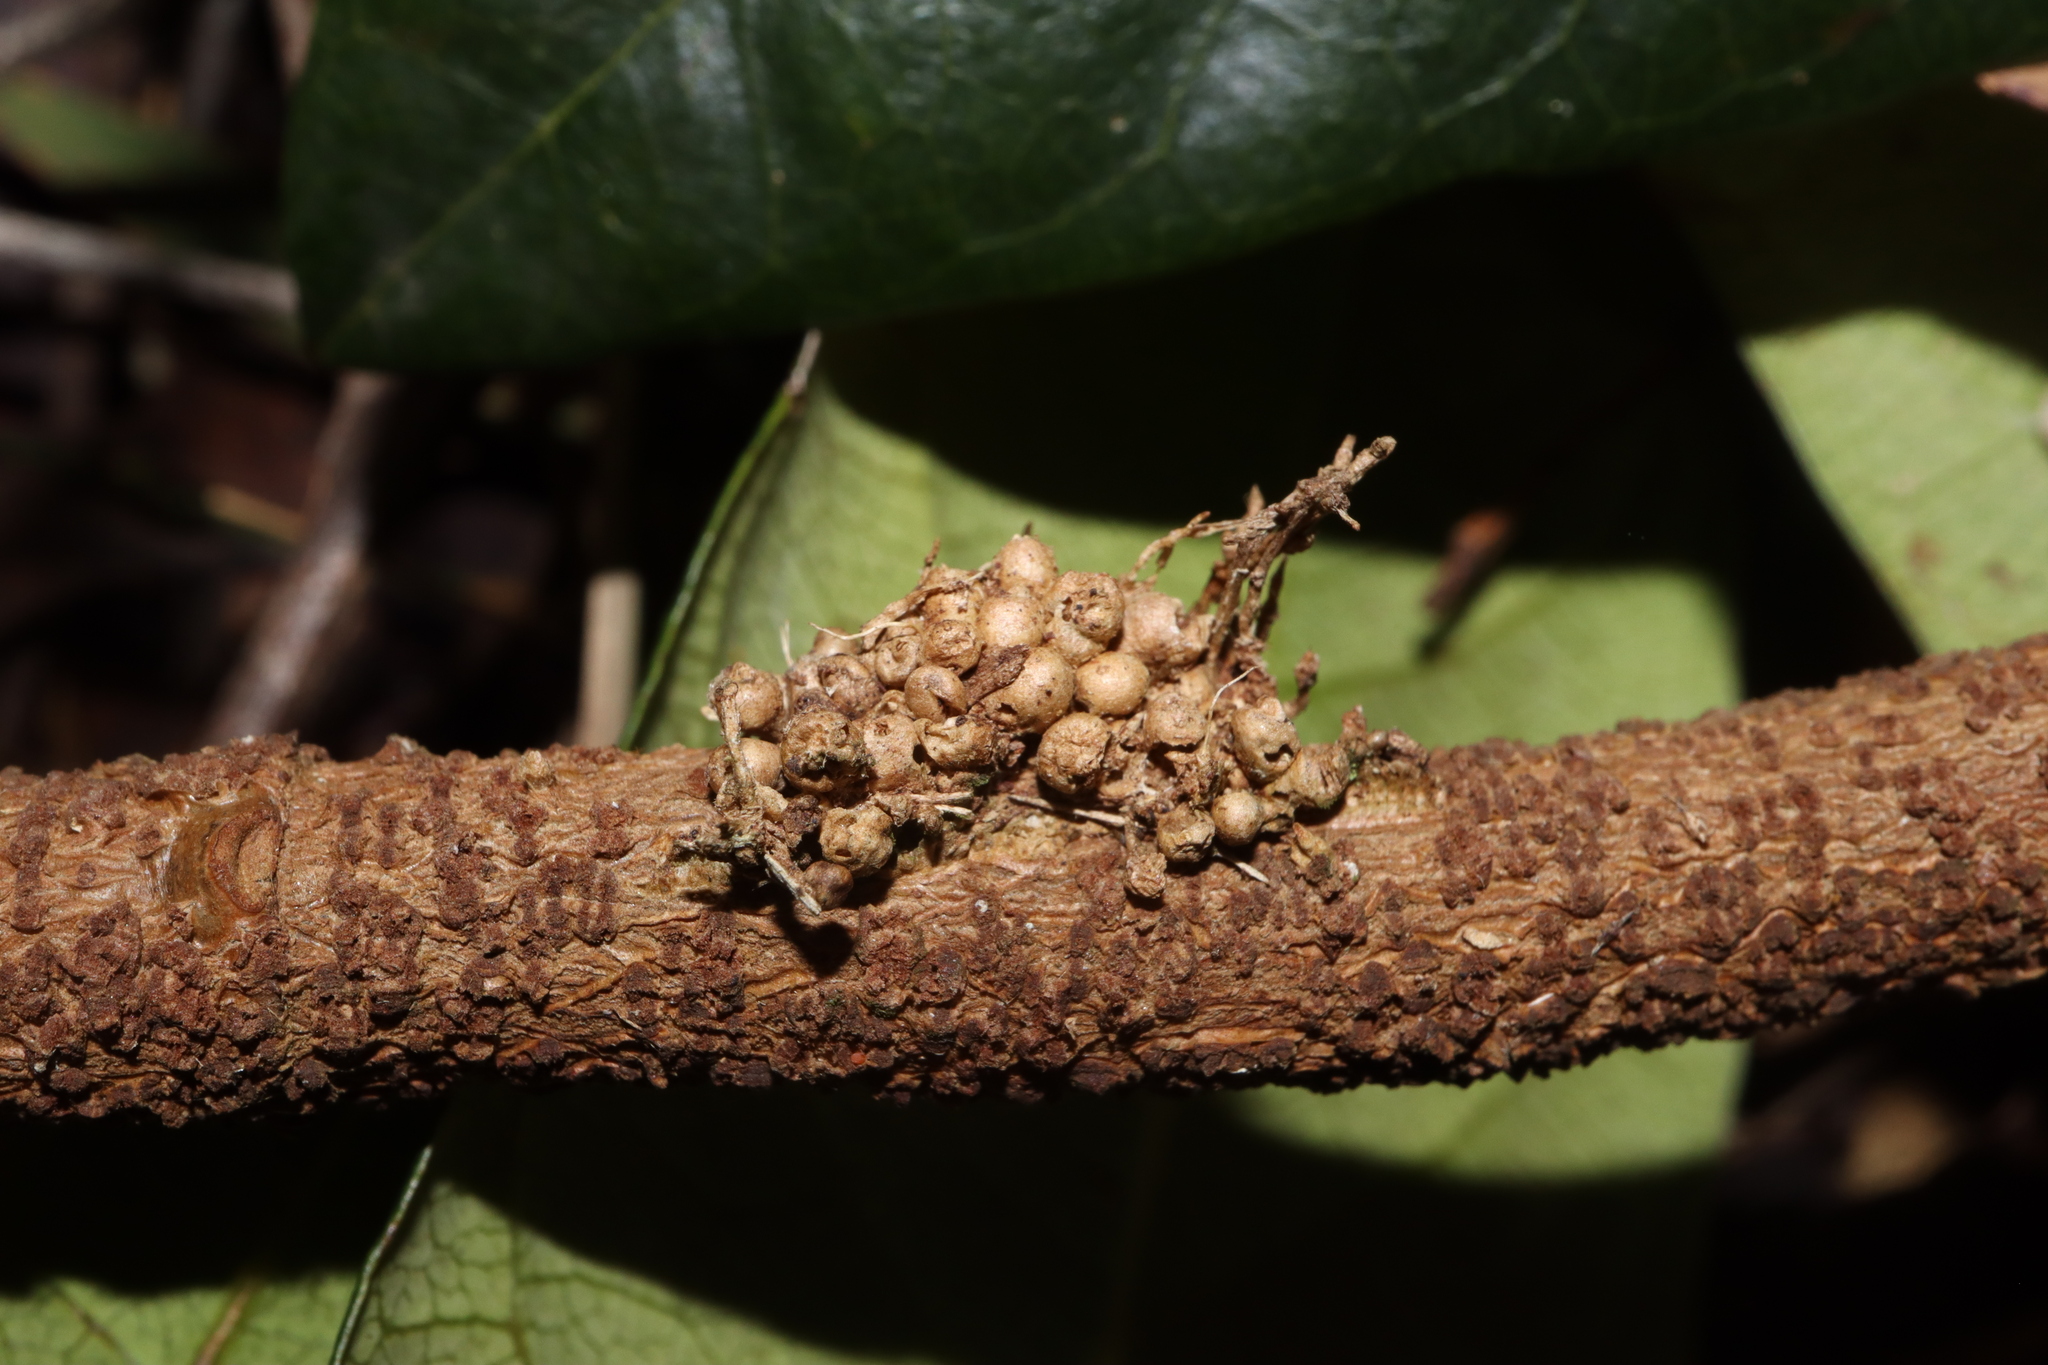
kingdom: Plantae
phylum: Tracheophyta
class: Magnoliopsida
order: Gentianales
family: Apocynaceae
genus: Parsonsia
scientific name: Parsonsia straminea
